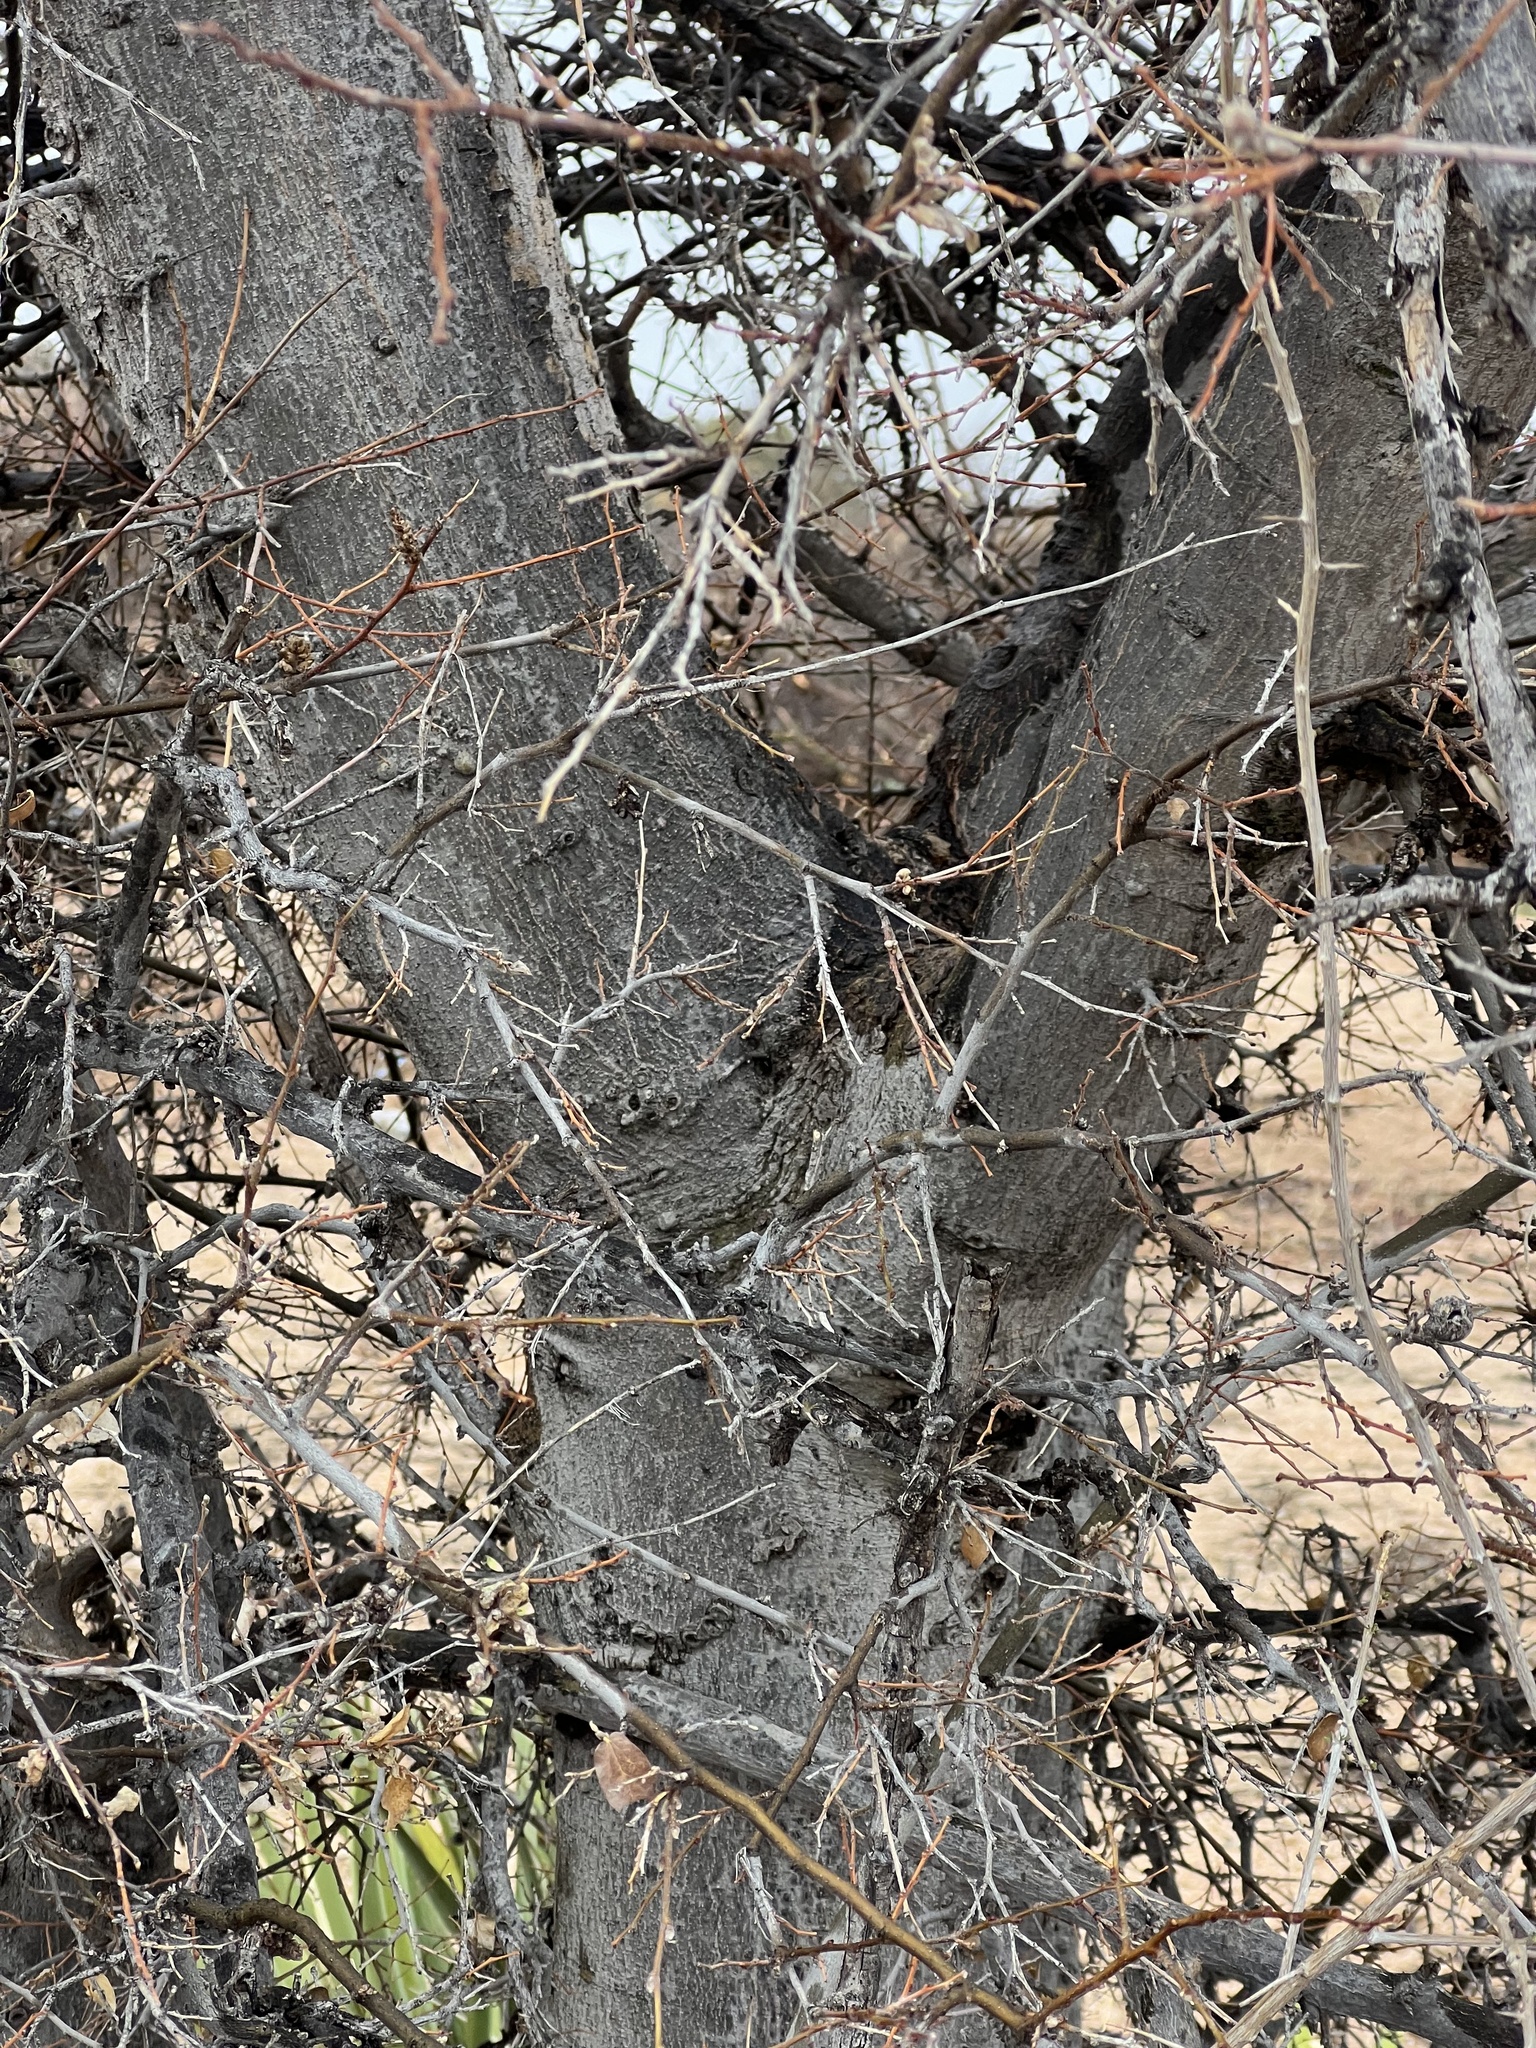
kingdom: Plantae
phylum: Tracheophyta
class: Magnoliopsida
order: Rosales
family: Cannabaceae
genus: Celtis
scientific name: Celtis reticulata
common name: Netleaf hackberry
